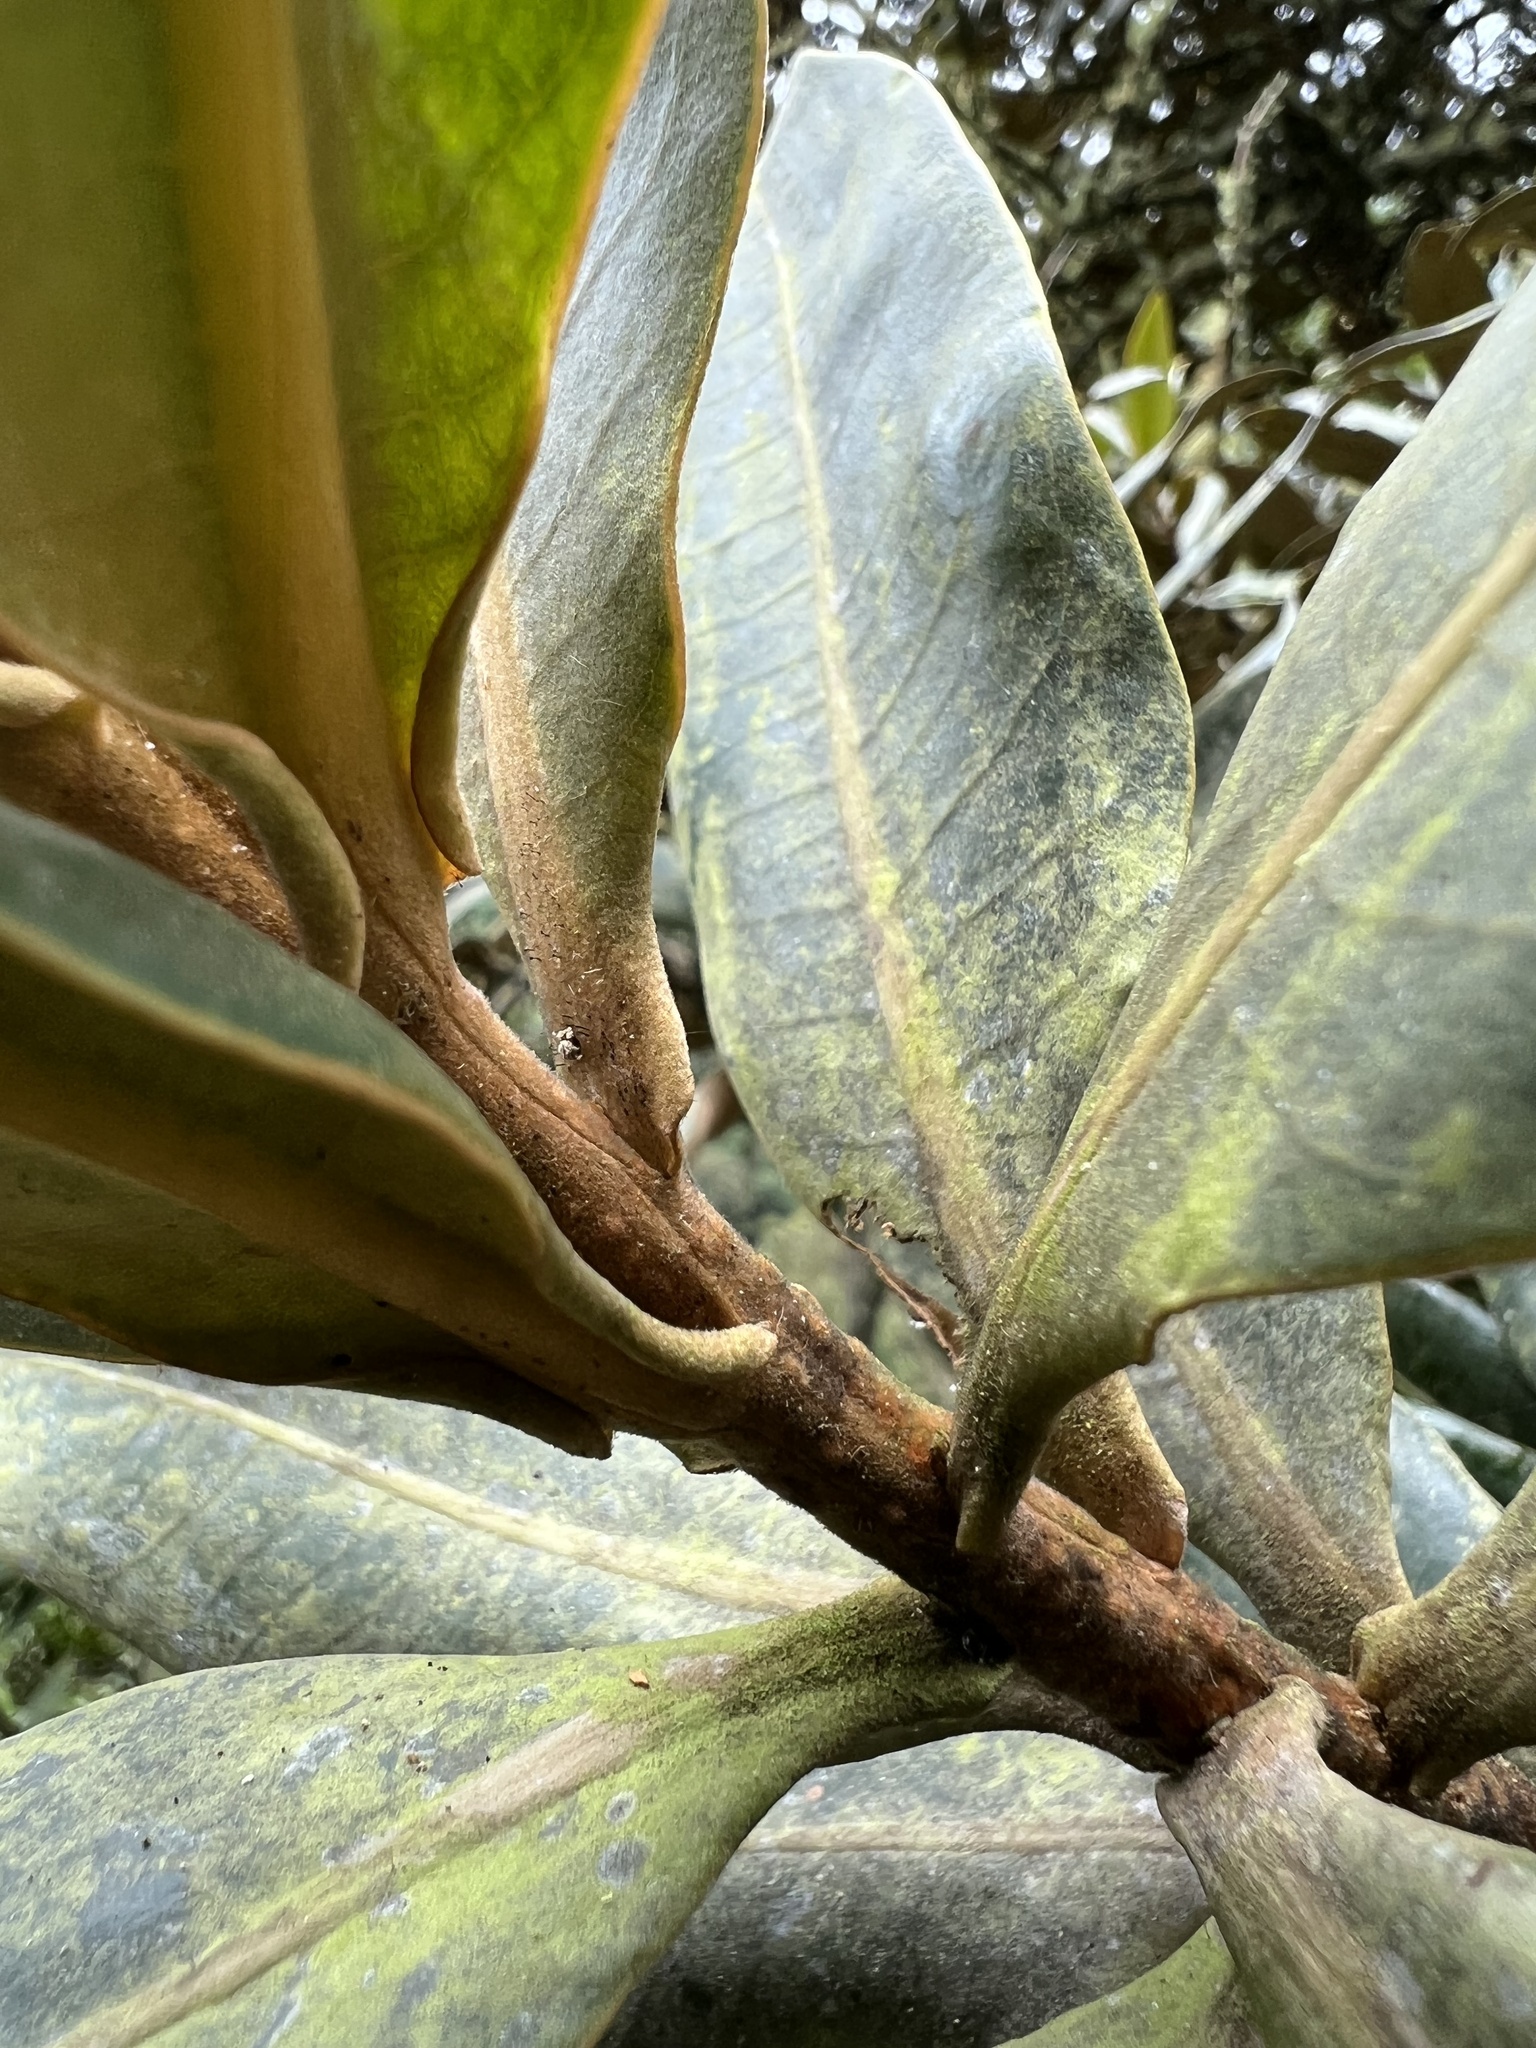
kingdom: Plantae
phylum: Tracheophyta
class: Magnoliopsida
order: Laurales
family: Lauraceae
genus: Andea
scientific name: Andea velutina
